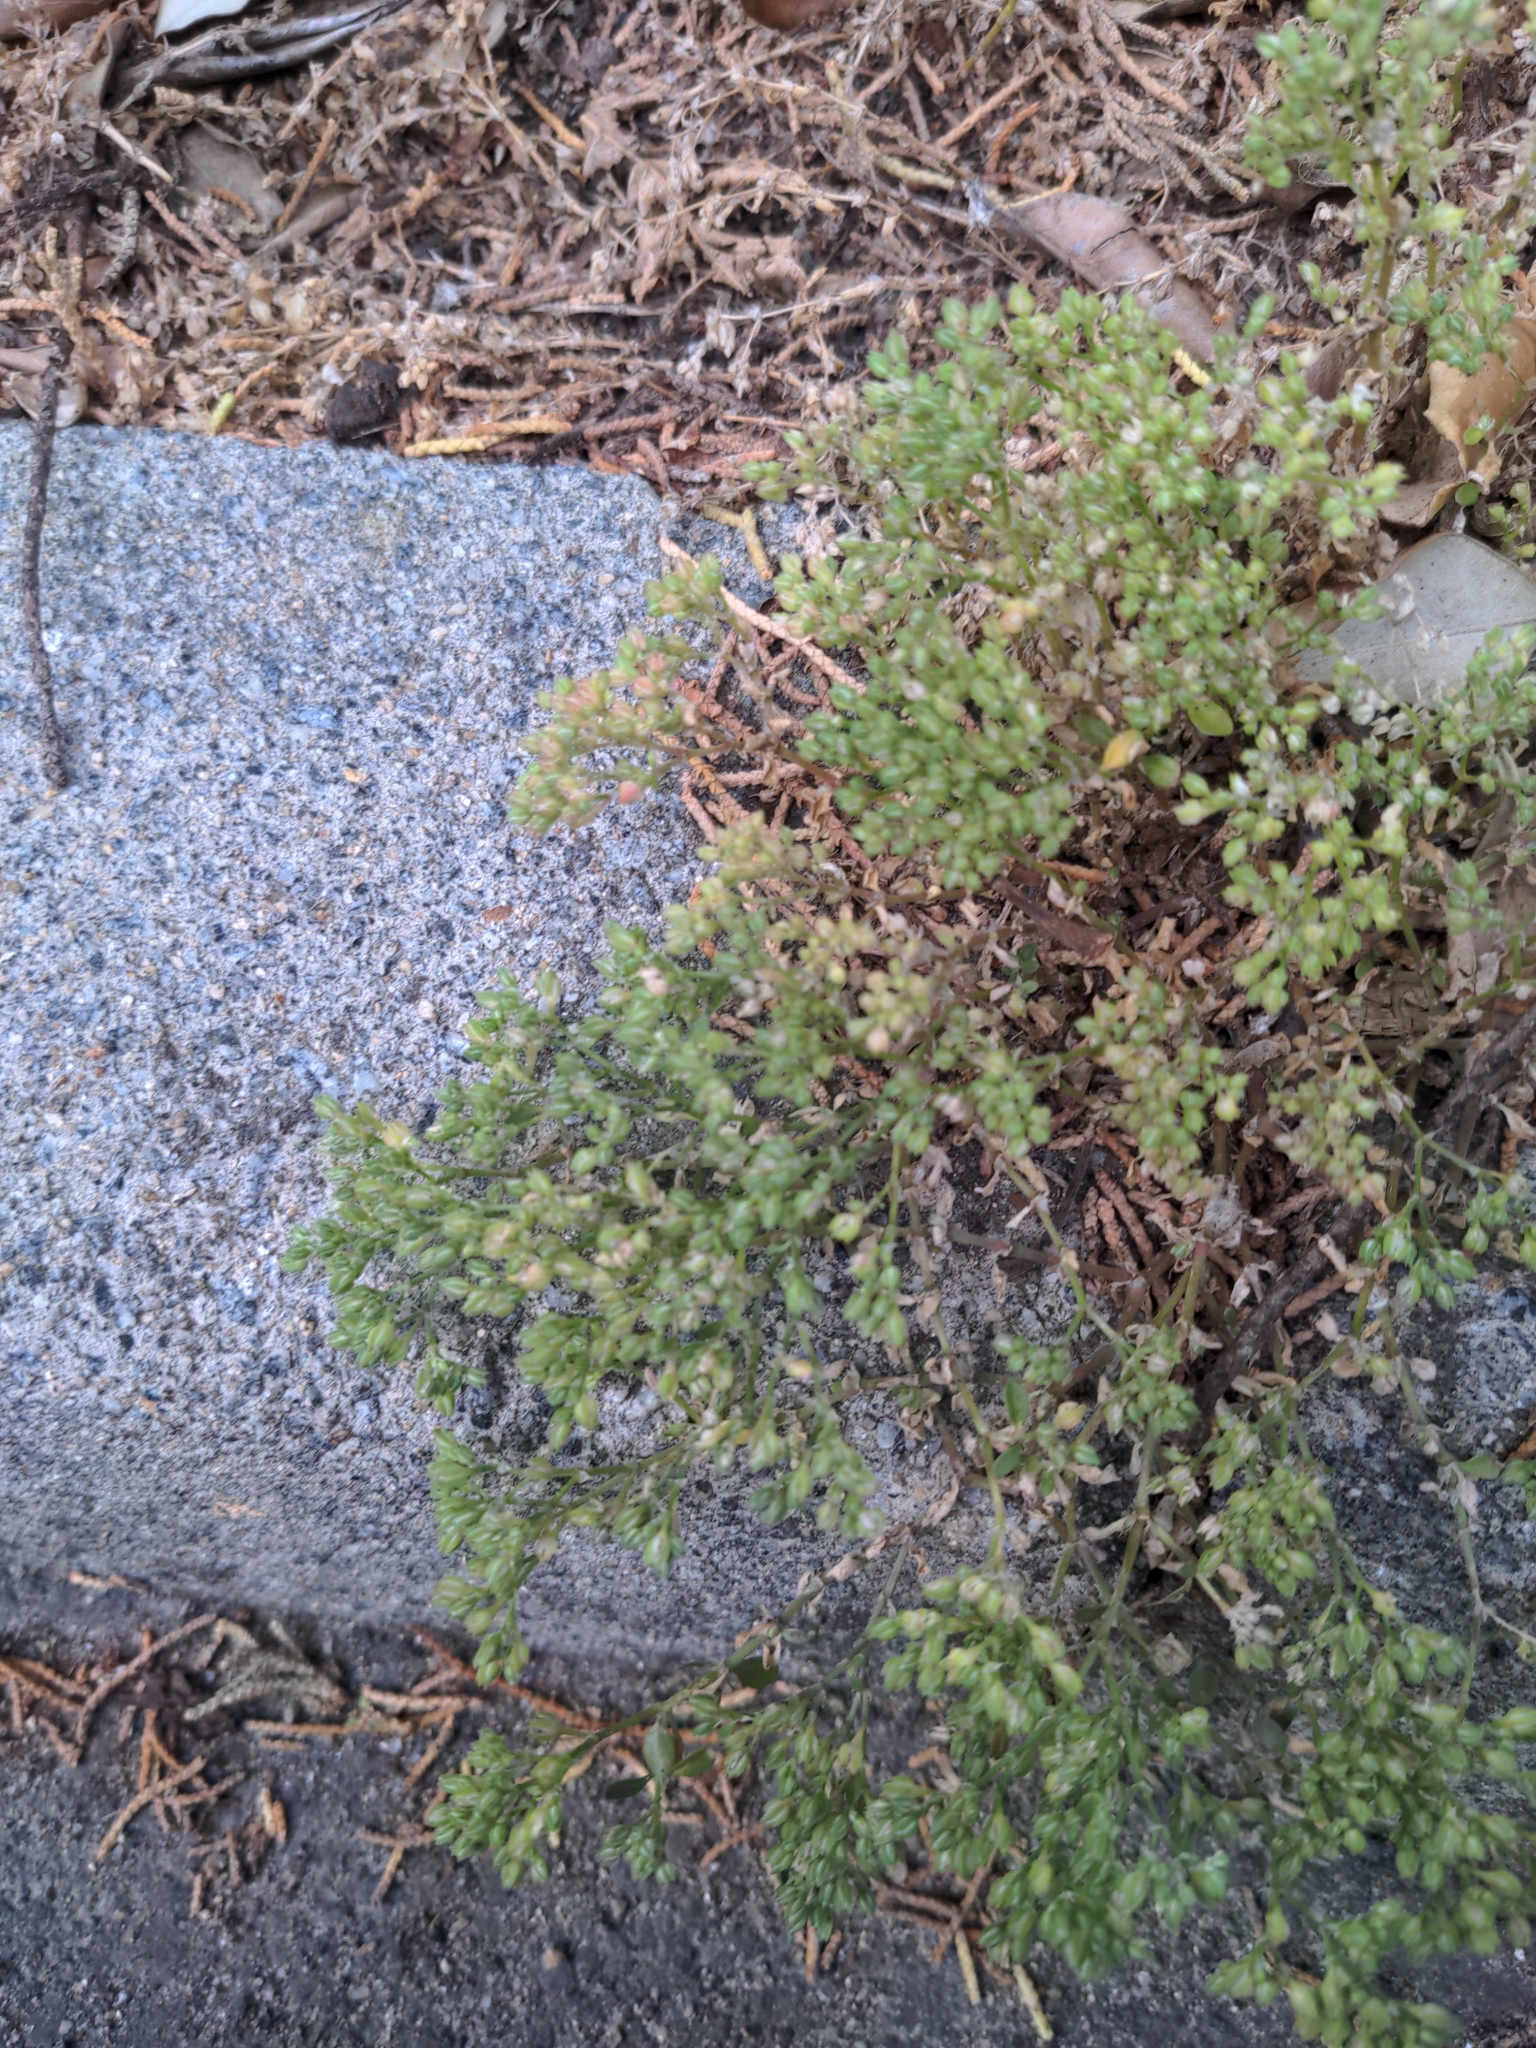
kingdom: Plantae
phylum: Tracheophyta
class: Magnoliopsida
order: Caryophyllales
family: Caryophyllaceae
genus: Polycarpon
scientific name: Polycarpon tetraphyllum
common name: Four-leaved all-seed
